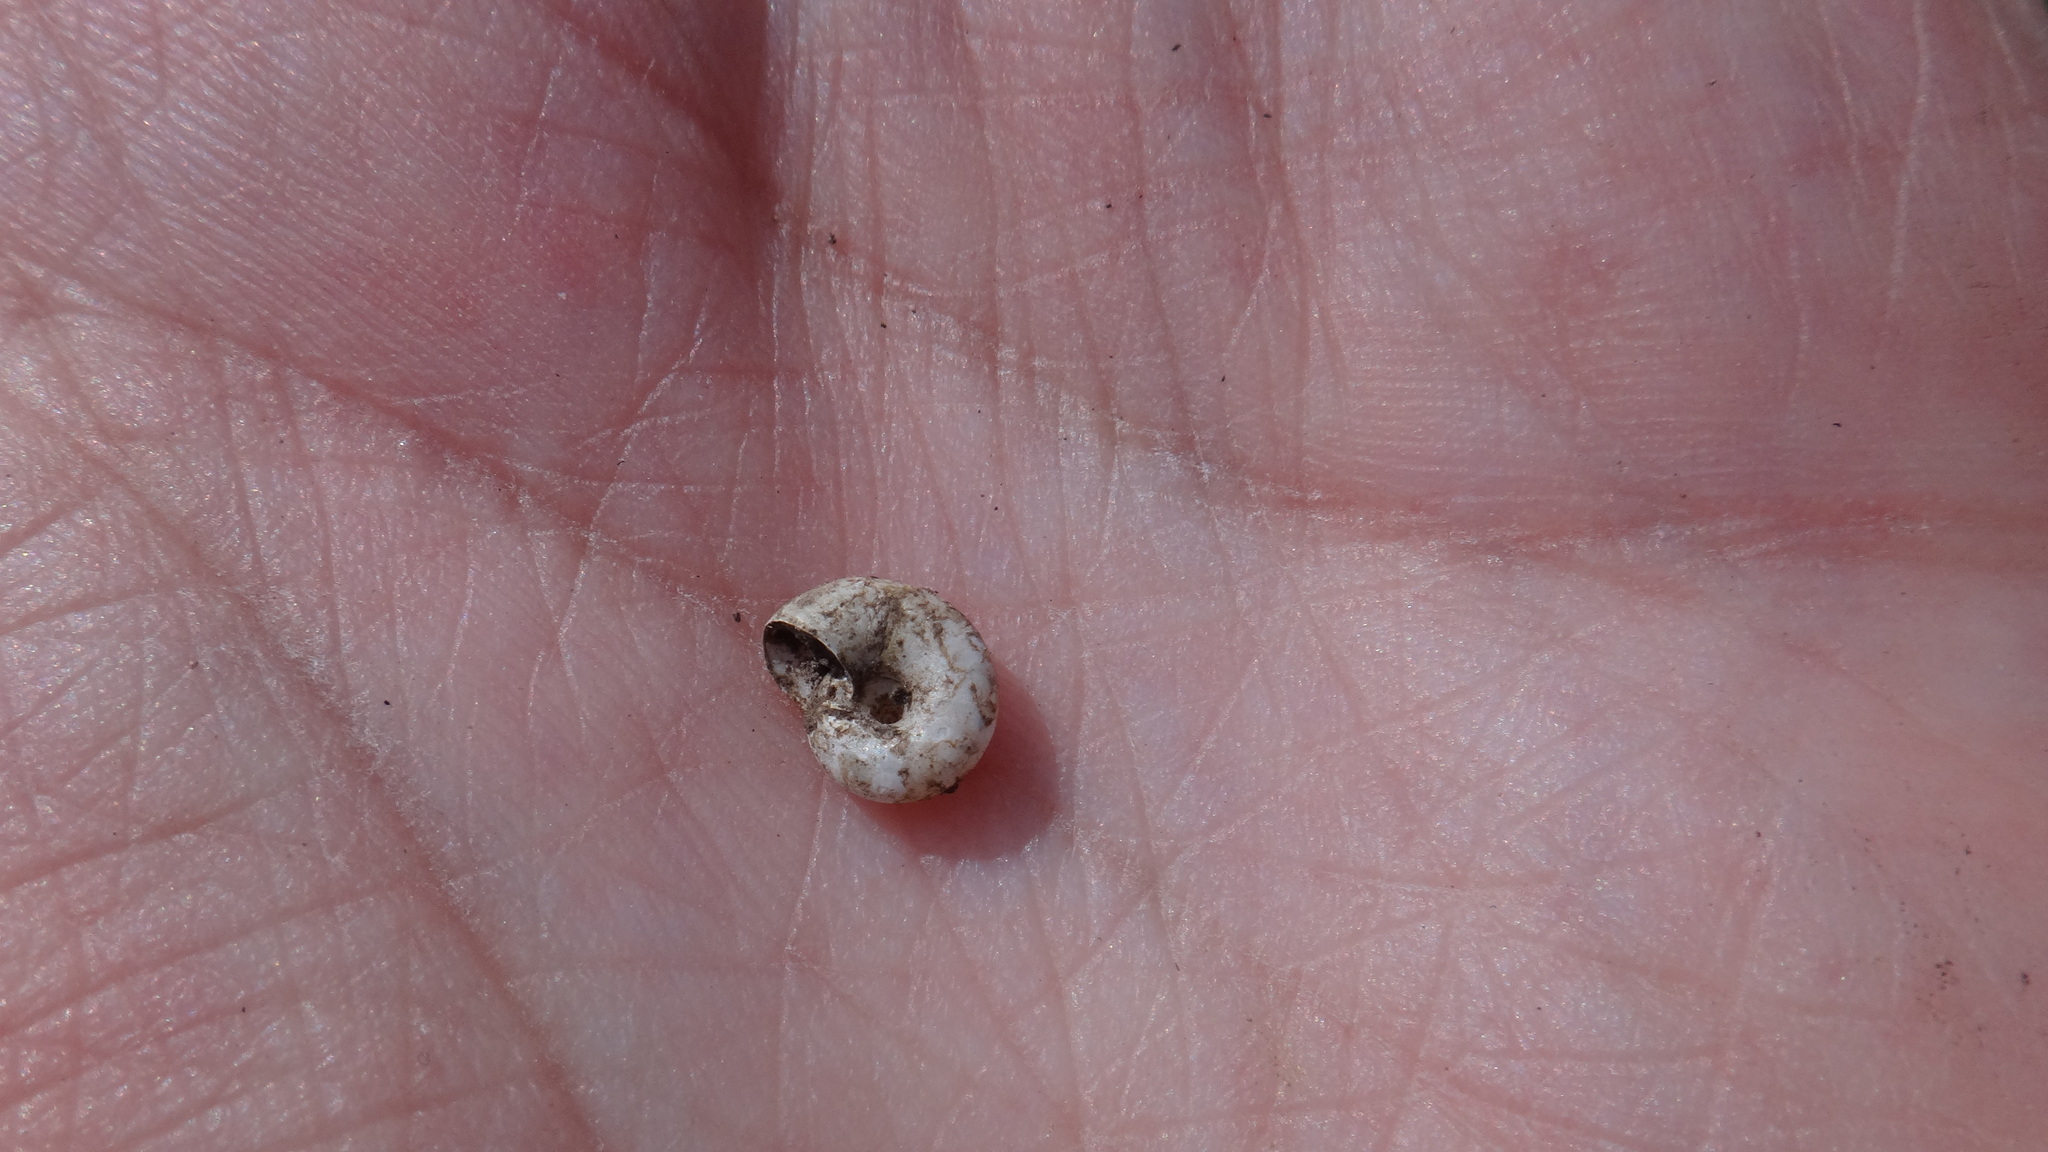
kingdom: Animalia
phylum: Mollusca
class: Gastropoda
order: Stylommatophora
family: Gastrodontidae
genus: Aegopinella
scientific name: Aegopinella minor
